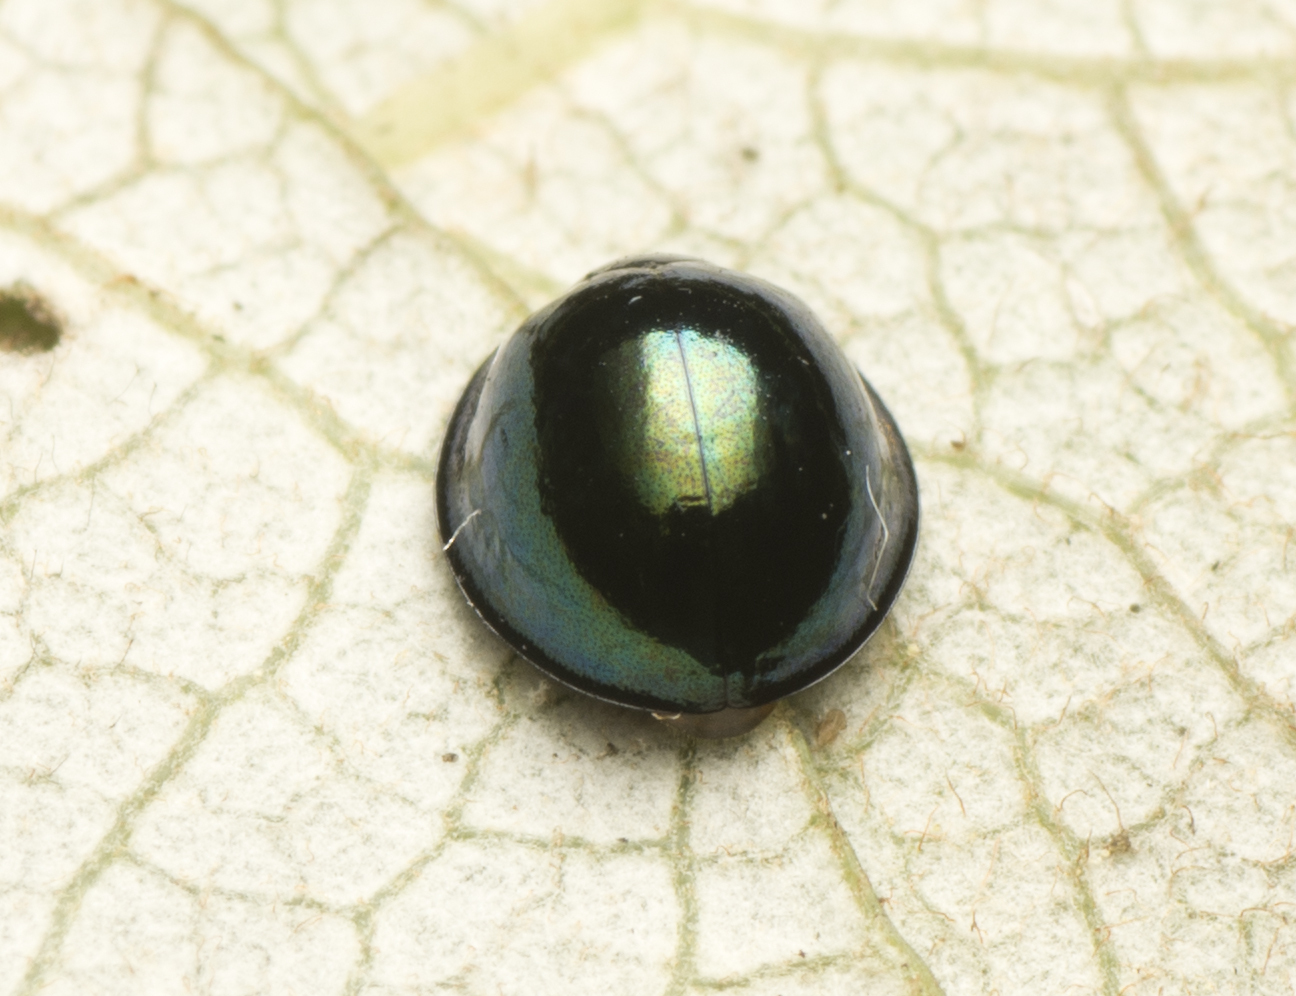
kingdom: Animalia
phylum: Arthropoda
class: Insecta
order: Coleoptera
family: Coccinellidae
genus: Halmus
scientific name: Halmus chalybeus
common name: Steel blue ladybird beetle
